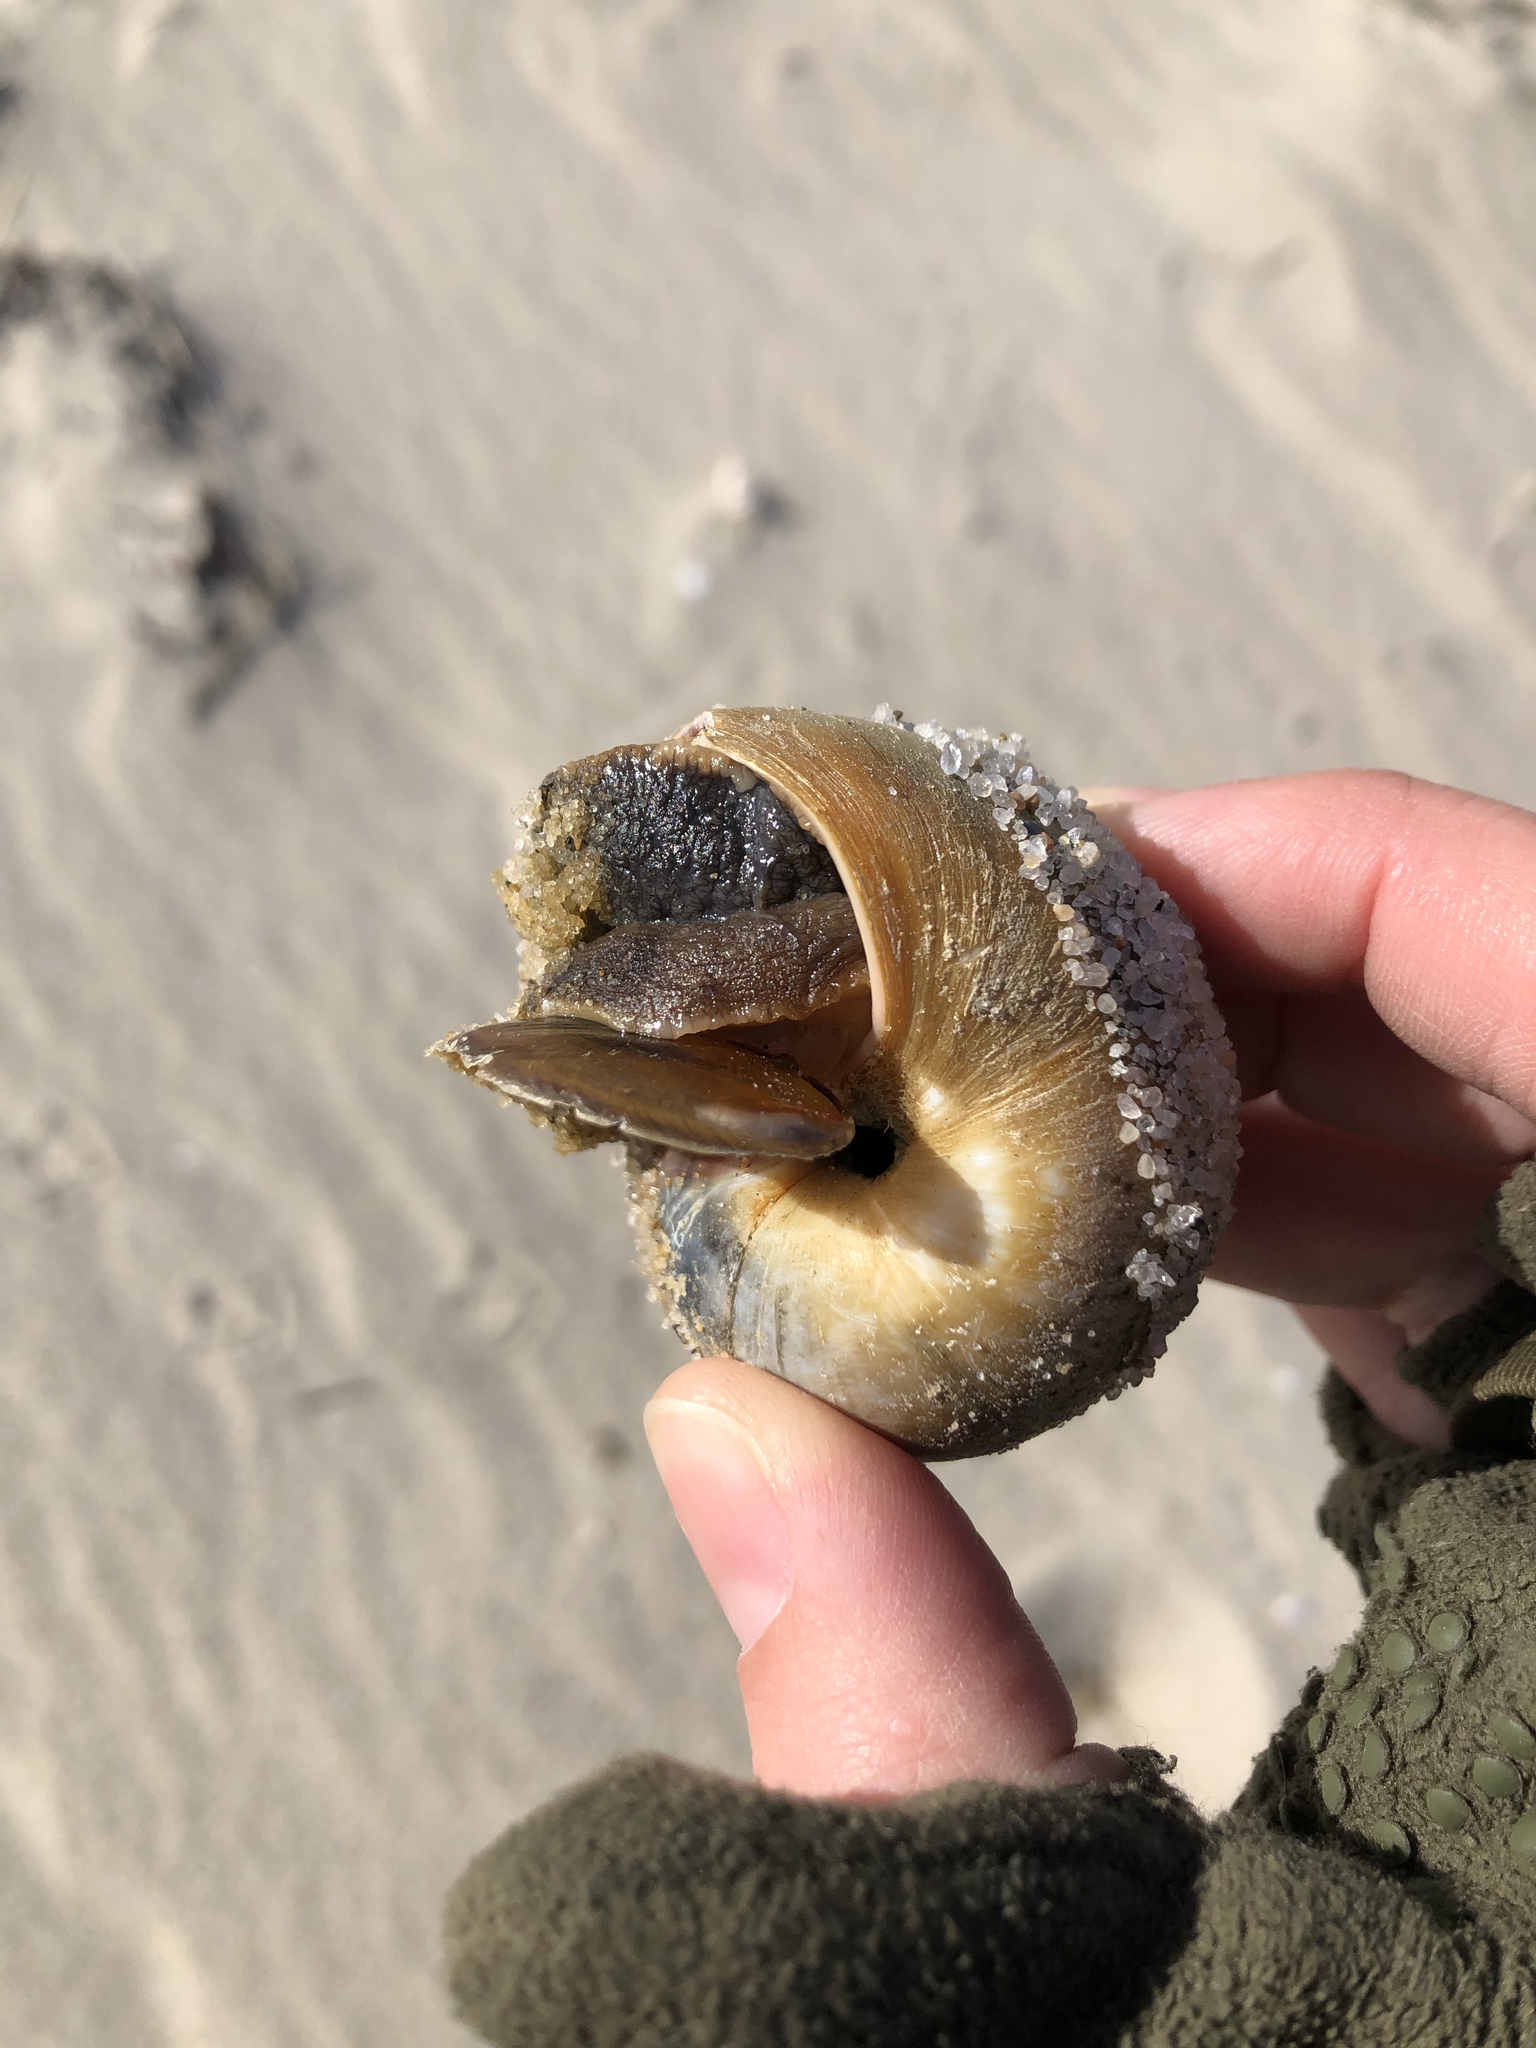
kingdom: Animalia
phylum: Mollusca
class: Gastropoda
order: Littorinimorpha
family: Naticidae
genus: Euspira
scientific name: Euspira heros
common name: Common northern moonsnail
